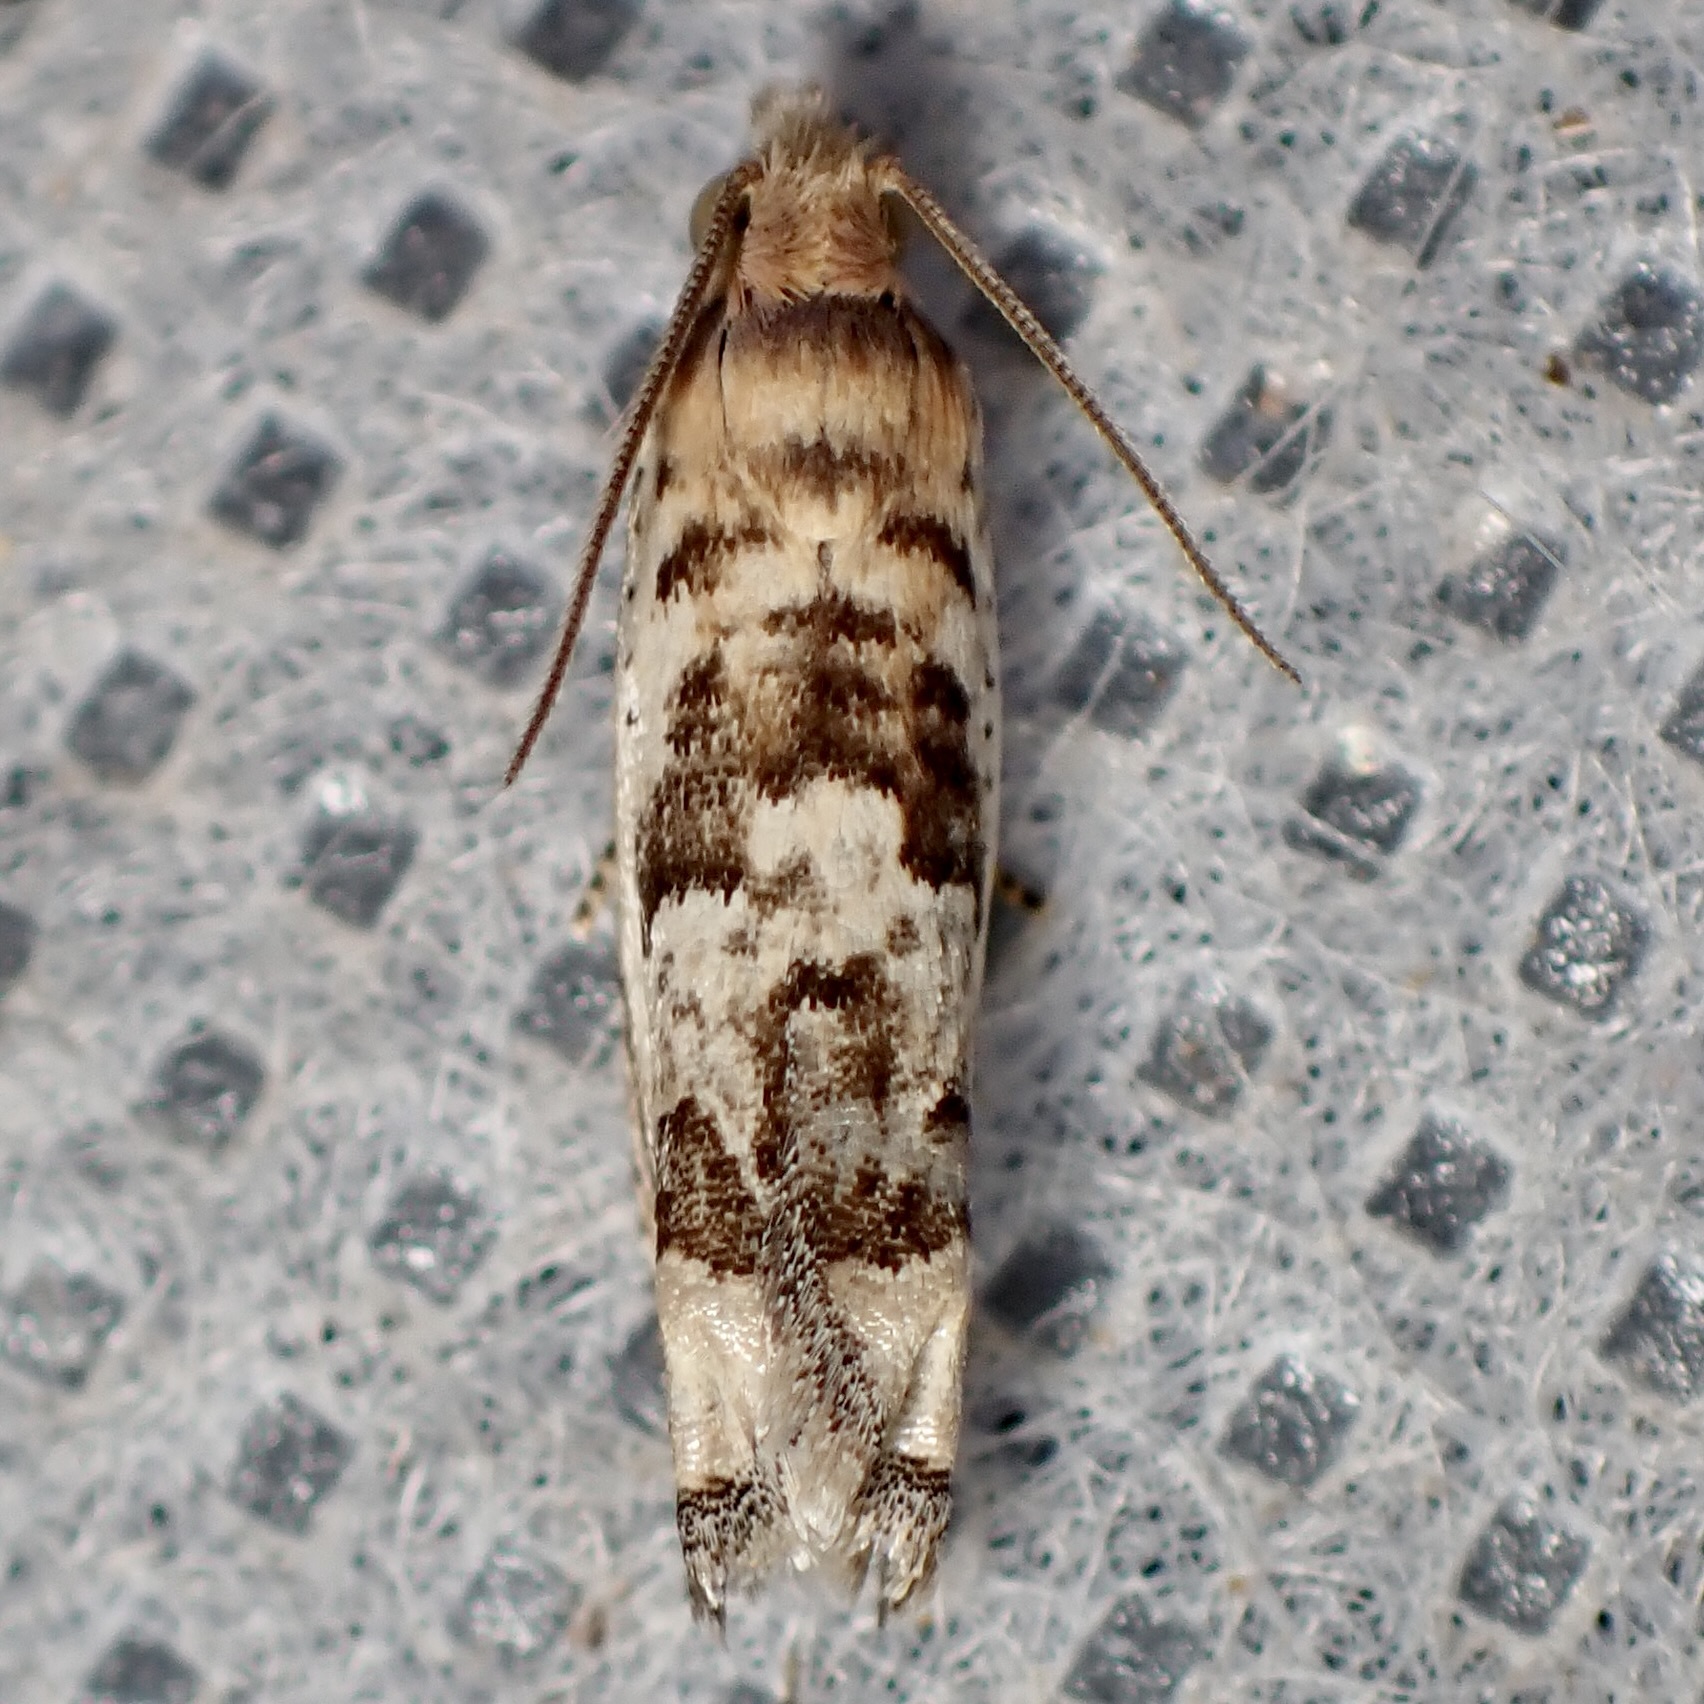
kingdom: Animalia
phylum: Arthropoda
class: Insecta
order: Lepidoptera
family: Tortricidae
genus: Eucosma
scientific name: Eucosma patagoniana
